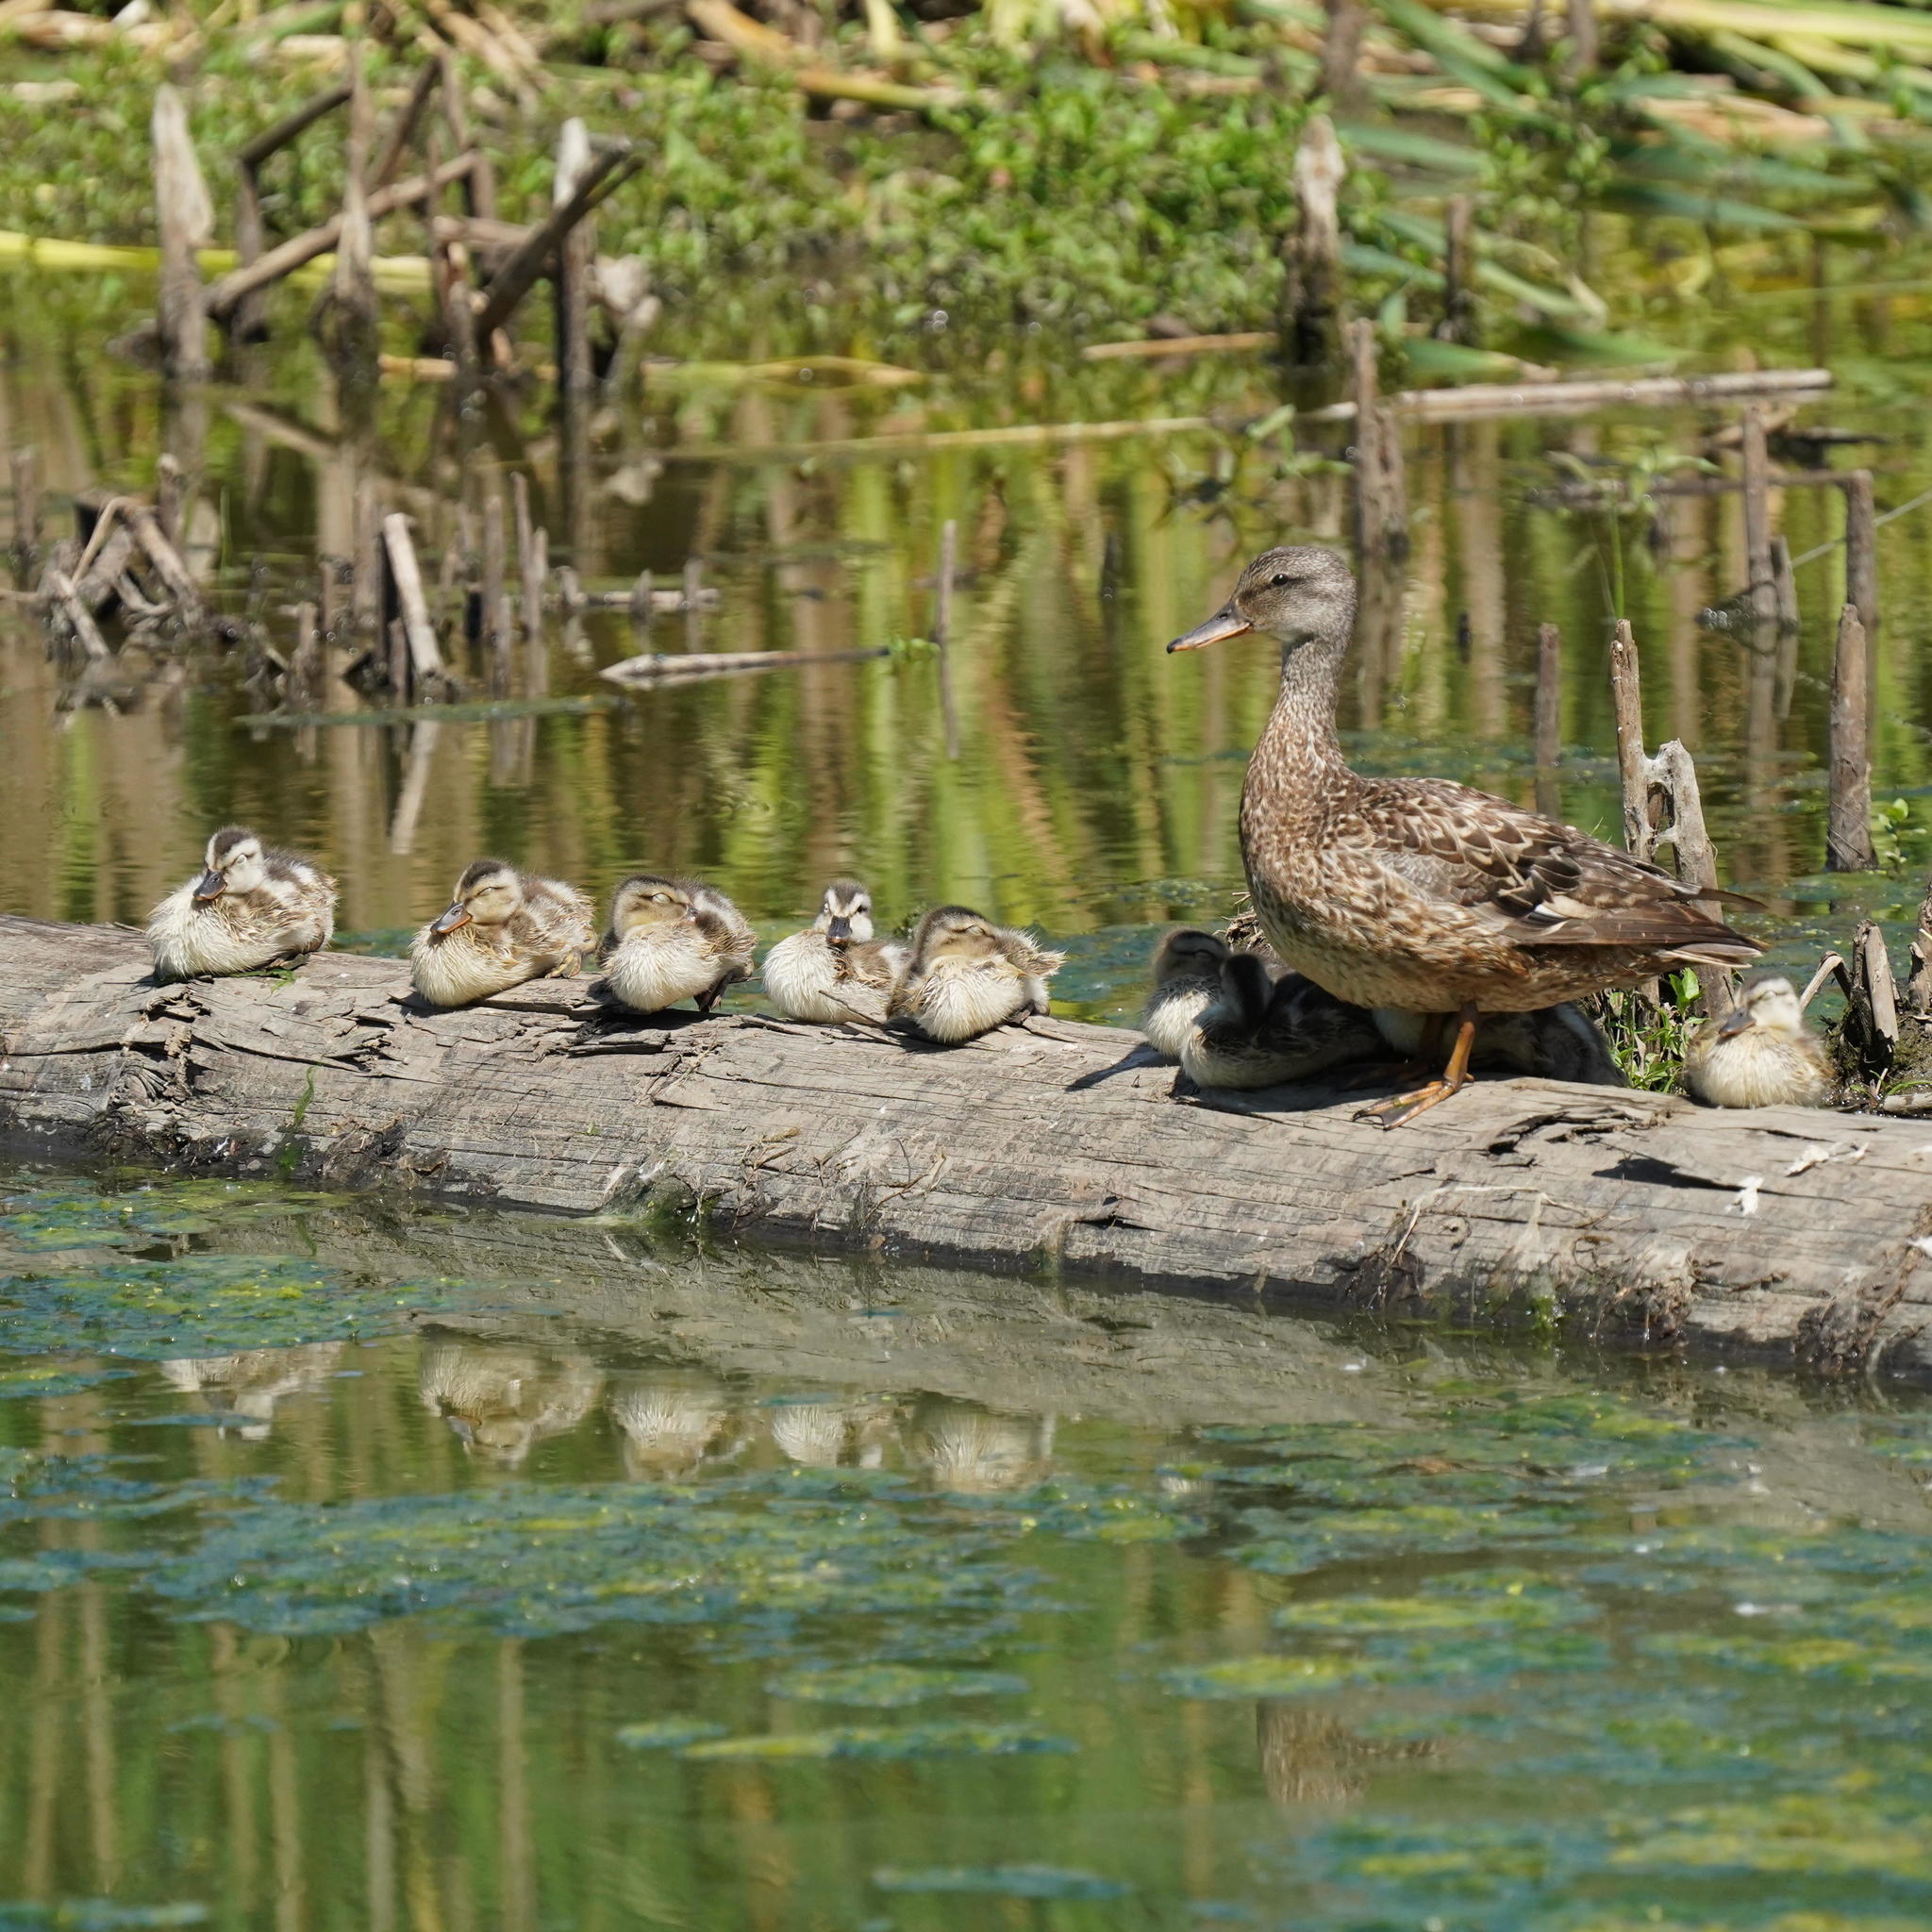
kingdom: Animalia
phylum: Chordata
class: Aves
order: Anseriformes
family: Anatidae
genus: Anas
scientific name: Anas platyrhynchos
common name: Mallard
